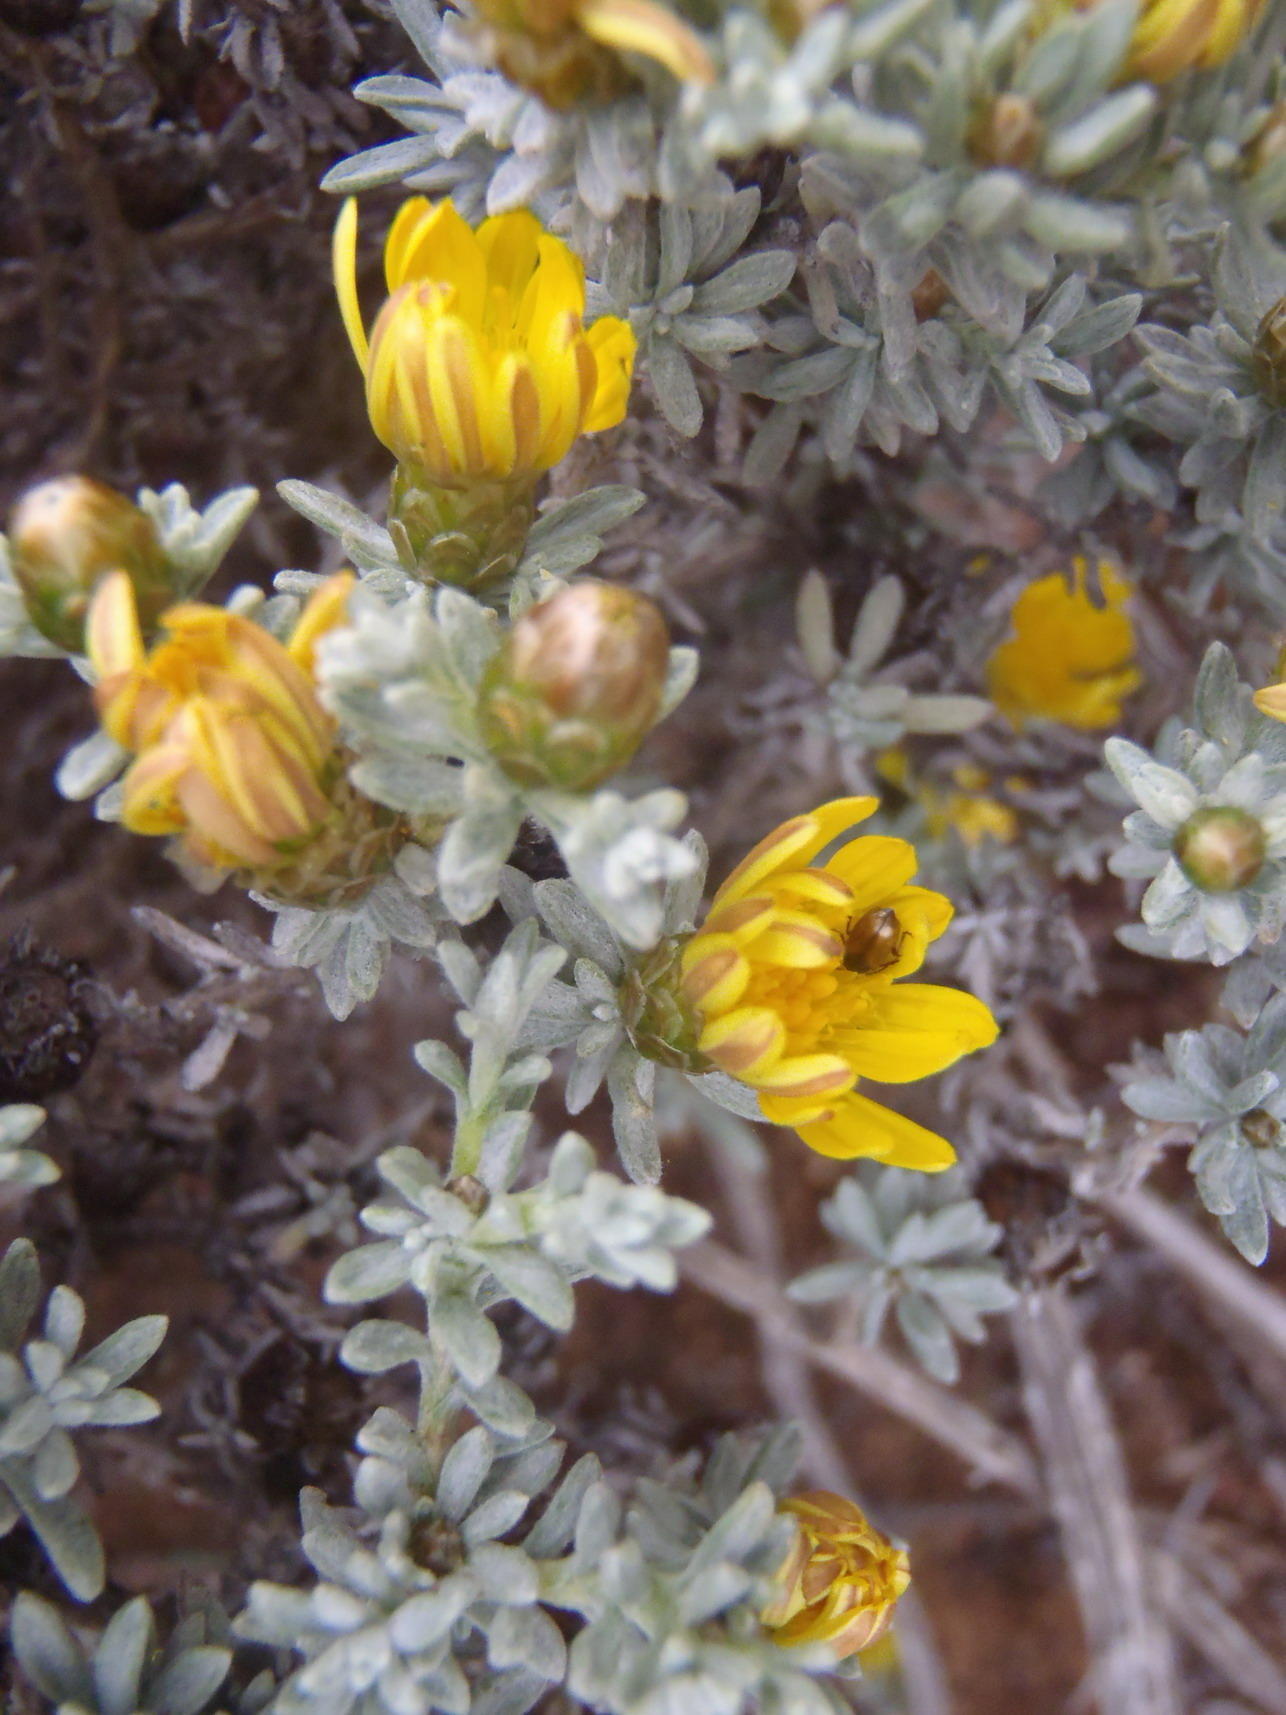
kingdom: Plantae
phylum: Tracheophyta
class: Magnoliopsida
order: Asterales
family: Asteraceae
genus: Oedera
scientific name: Oedera humilis
